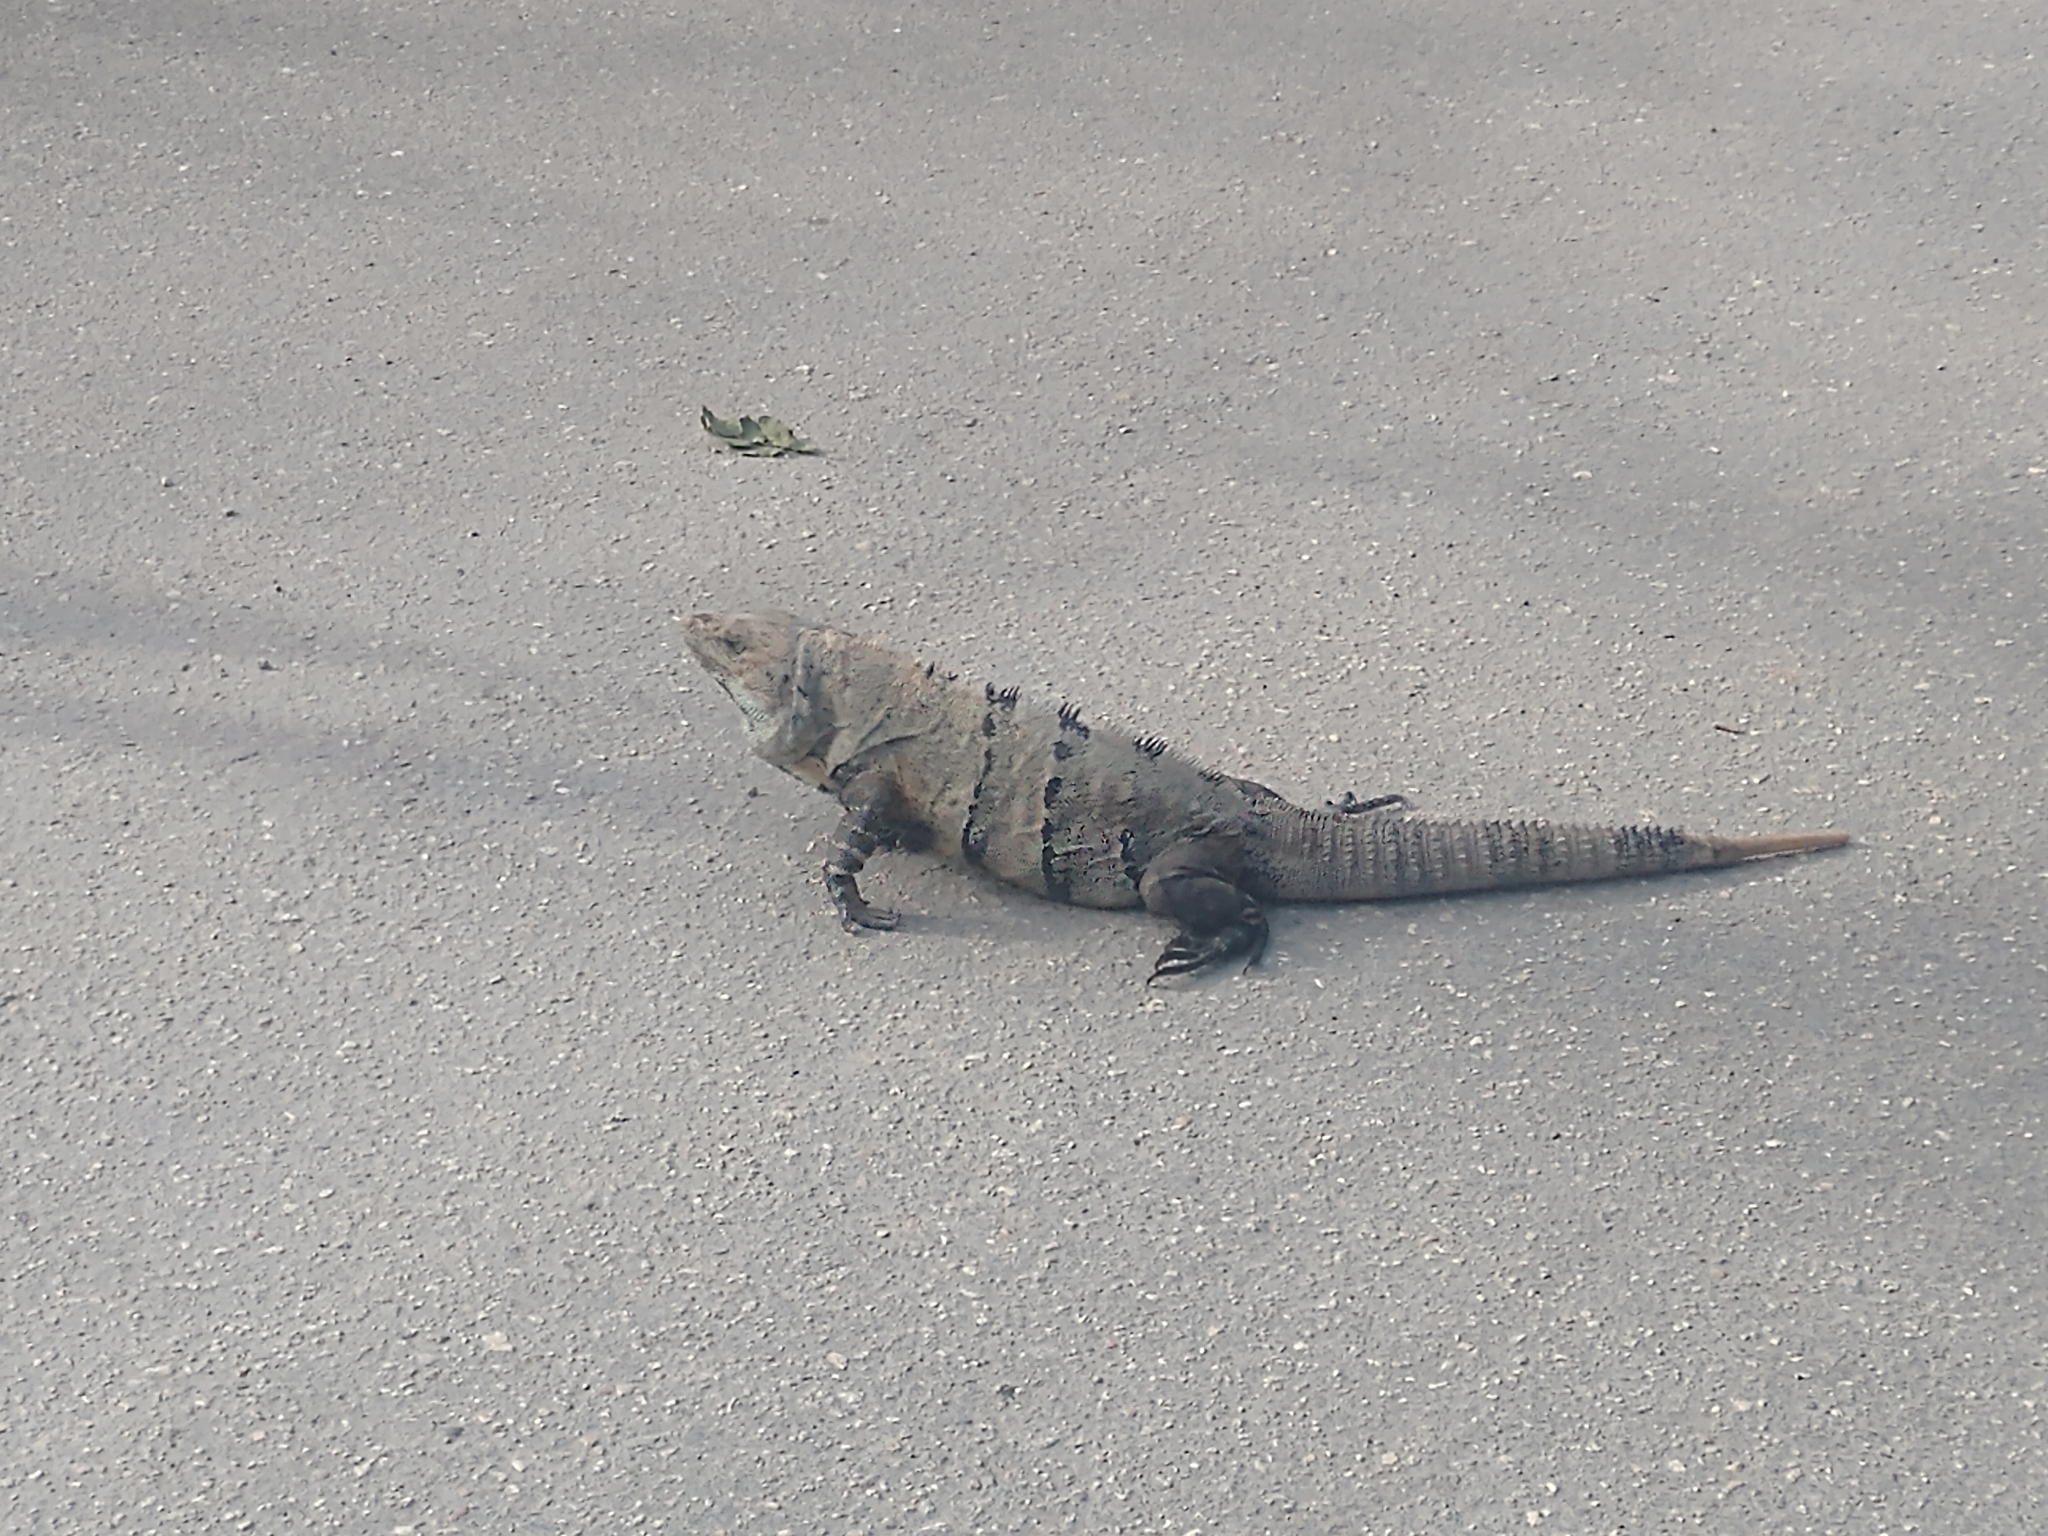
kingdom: Animalia
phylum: Chordata
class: Squamata
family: Iguanidae
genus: Ctenosaura
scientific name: Ctenosaura similis
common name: Black spiny-tailed iguana
